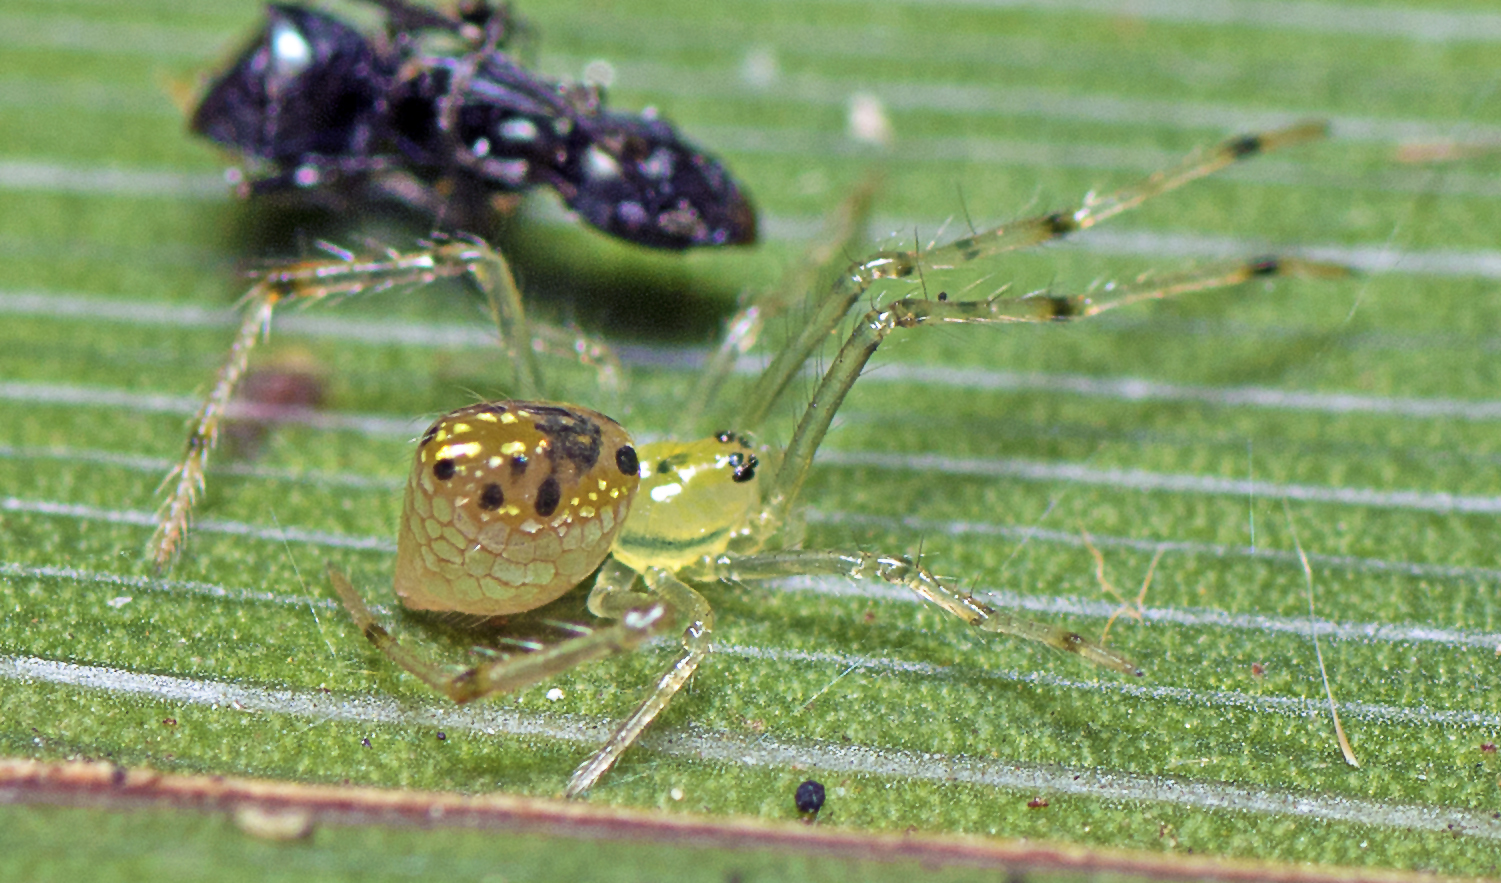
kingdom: Animalia
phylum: Arthropoda
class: Arachnida
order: Araneae
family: Theridiidae
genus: Thwaitesia
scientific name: Thwaitesia nigronodosa
